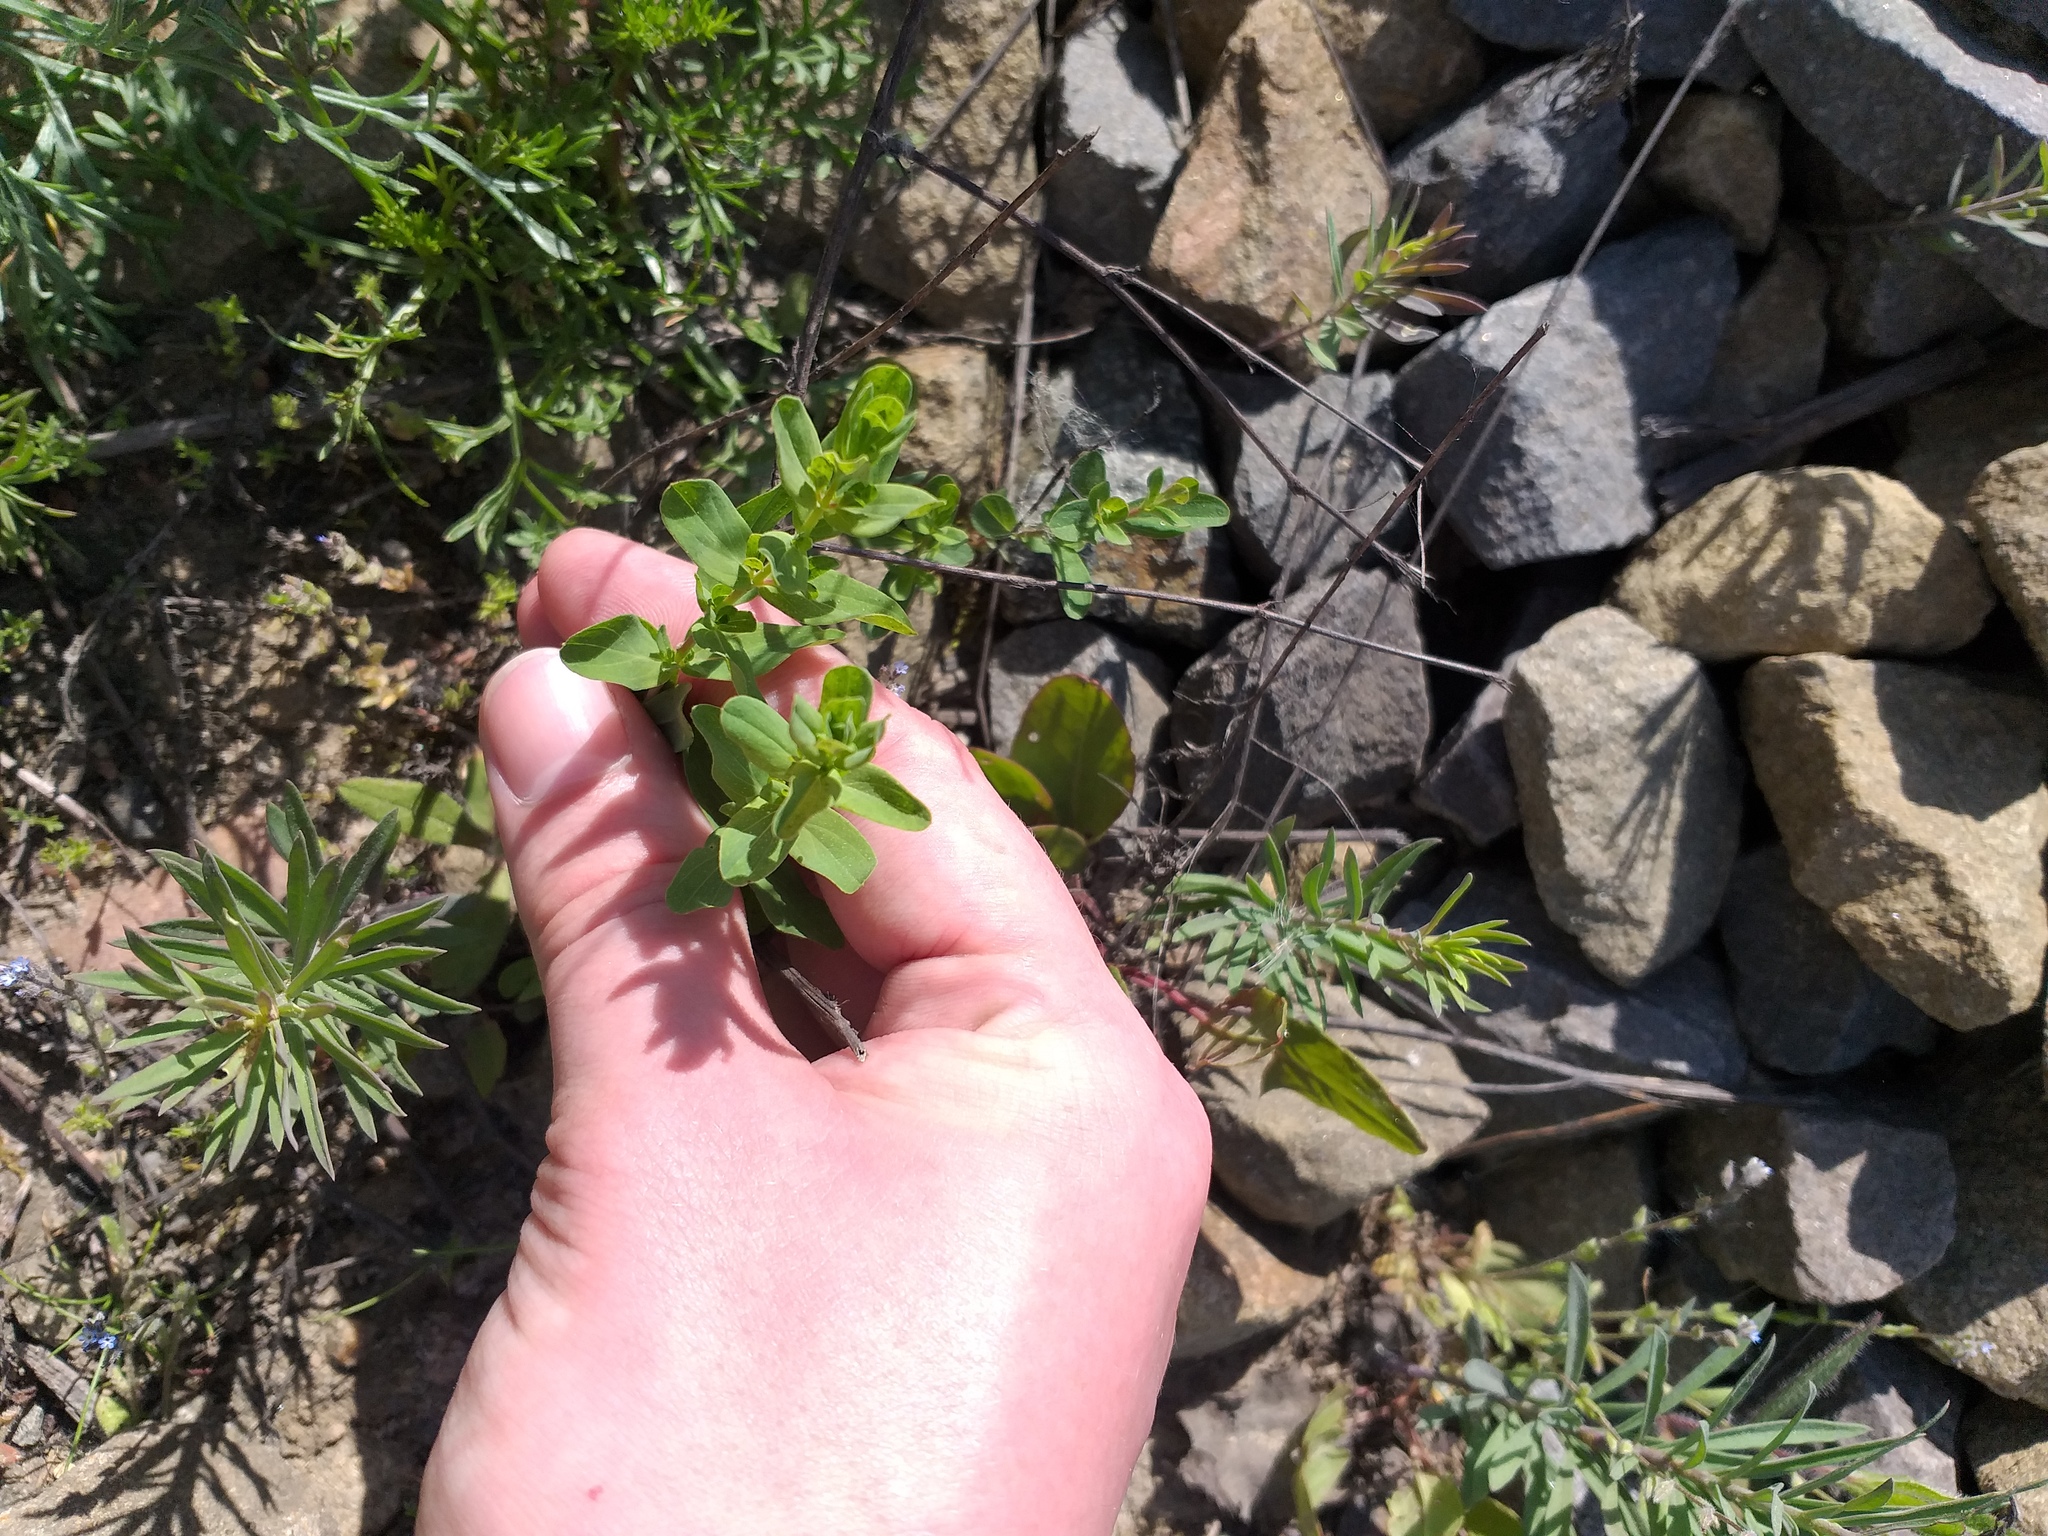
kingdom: Plantae
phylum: Tracheophyta
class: Magnoliopsida
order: Malpighiales
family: Hypericaceae
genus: Hypericum
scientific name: Hypericum perforatum
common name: Common st. johnswort
